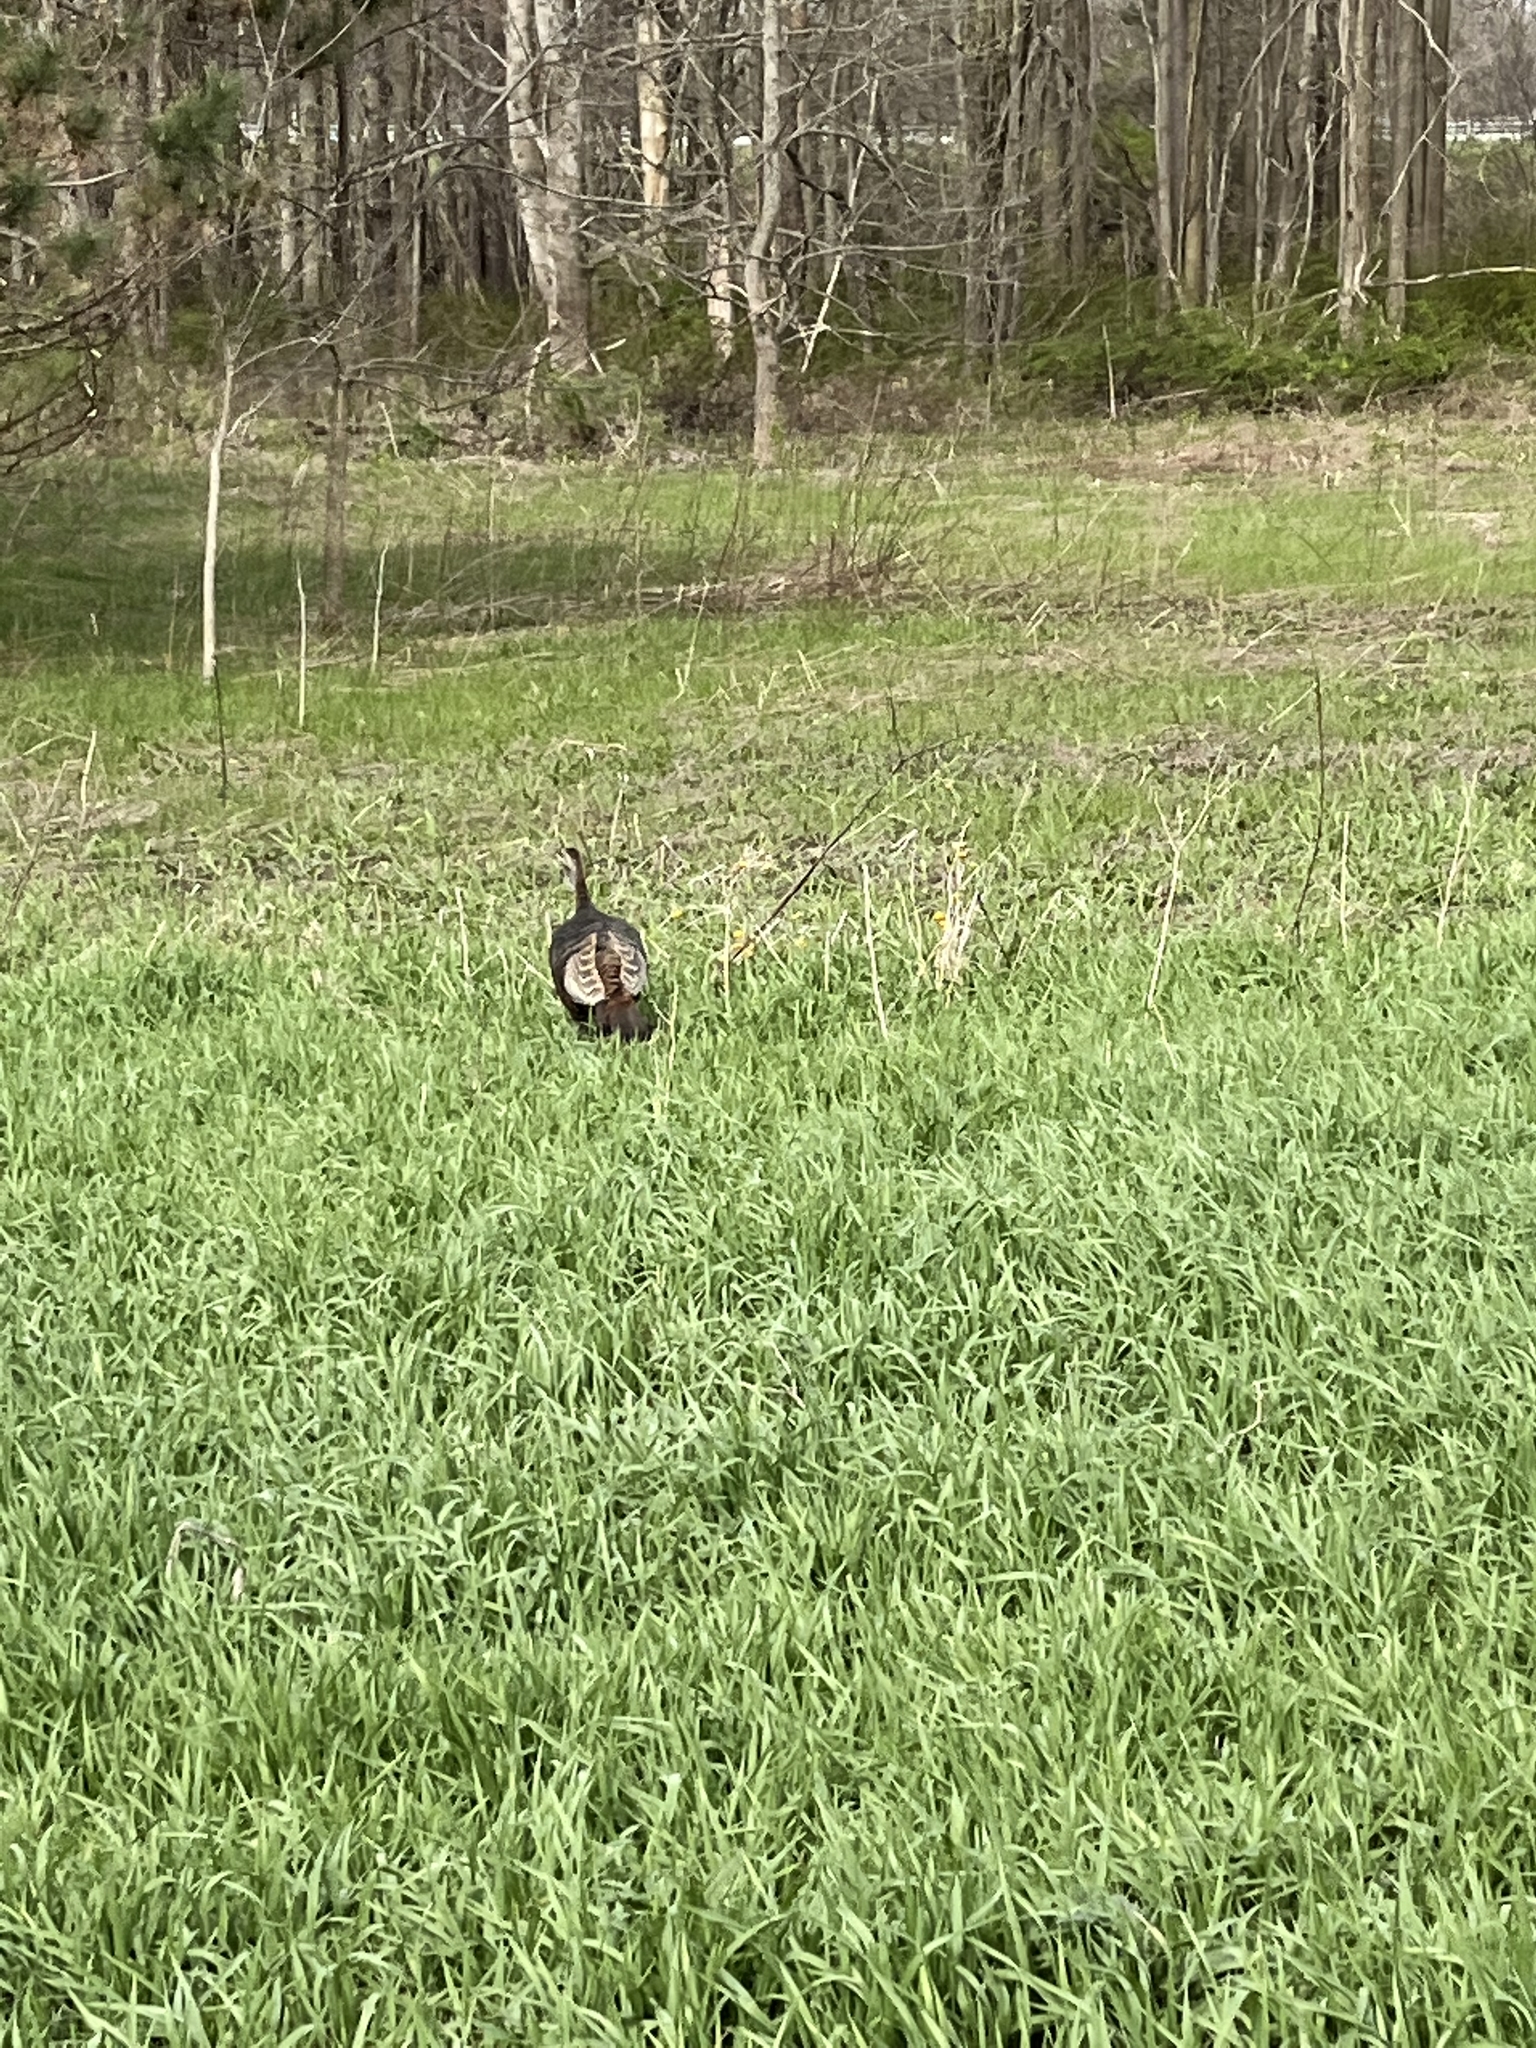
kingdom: Animalia
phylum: Chordata
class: Aves
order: Galliformes
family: Phasianidae
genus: Meleagris
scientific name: Meleagris gallopavo
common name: Wild turkey
